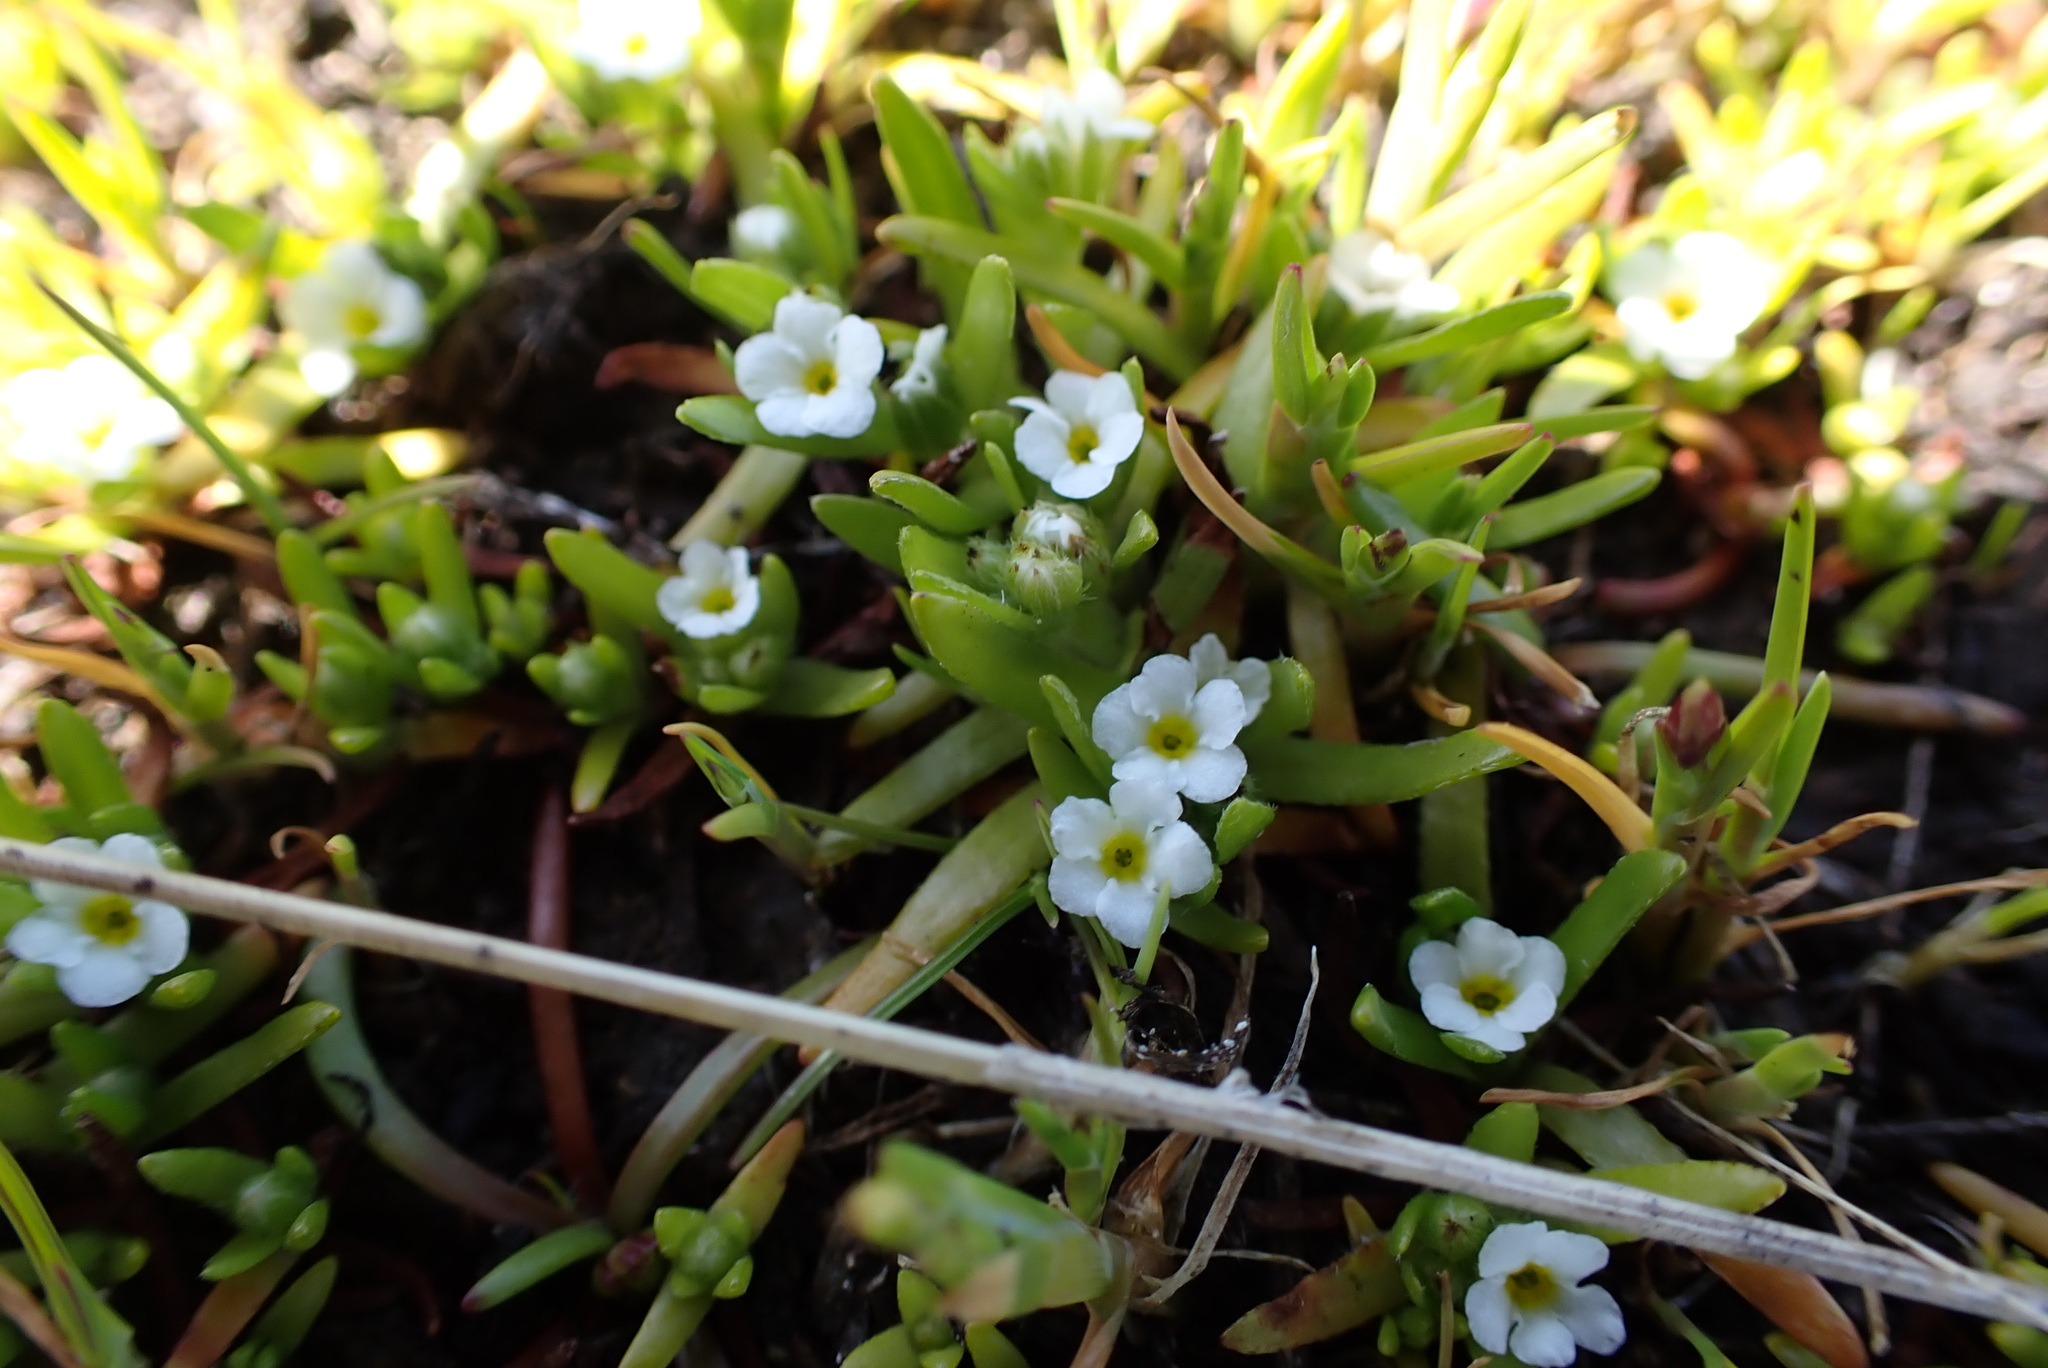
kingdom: Plantae
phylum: Tracheophyta
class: Magnoliopsida
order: Boraginales
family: Boraginaceae
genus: Plagiobothrys
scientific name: Plagiobothrys scouleri
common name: White forget-me-not
